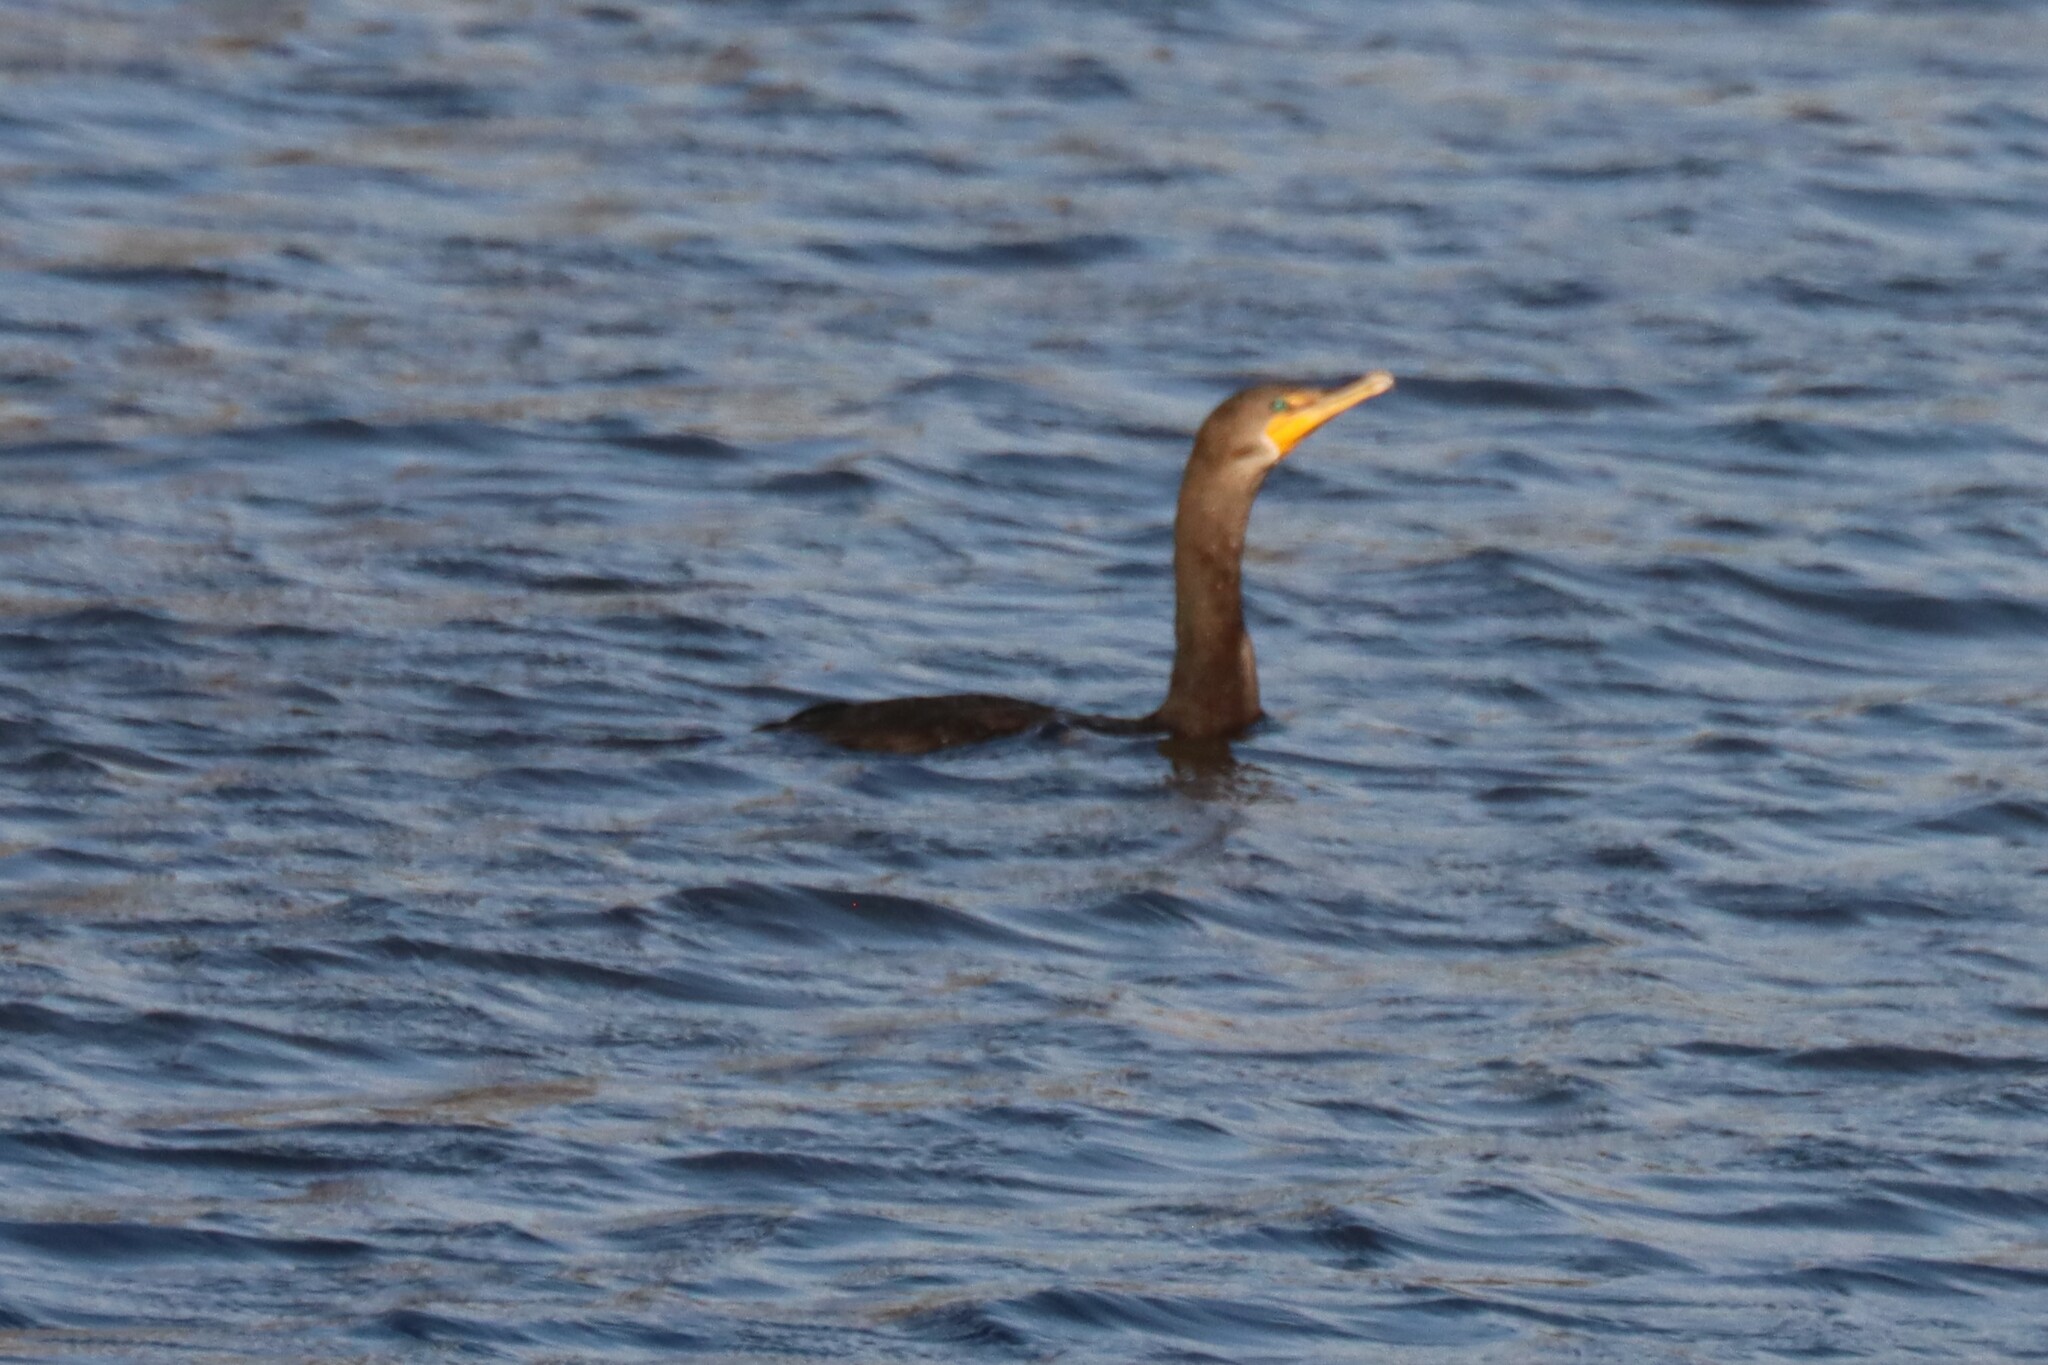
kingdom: Animalia
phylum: Chordata
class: Aves
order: Suliformes
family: Phalacrocoracidae
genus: Phalacrocorax
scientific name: Phalacrocorax auritus
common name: Double-crested cormorant
